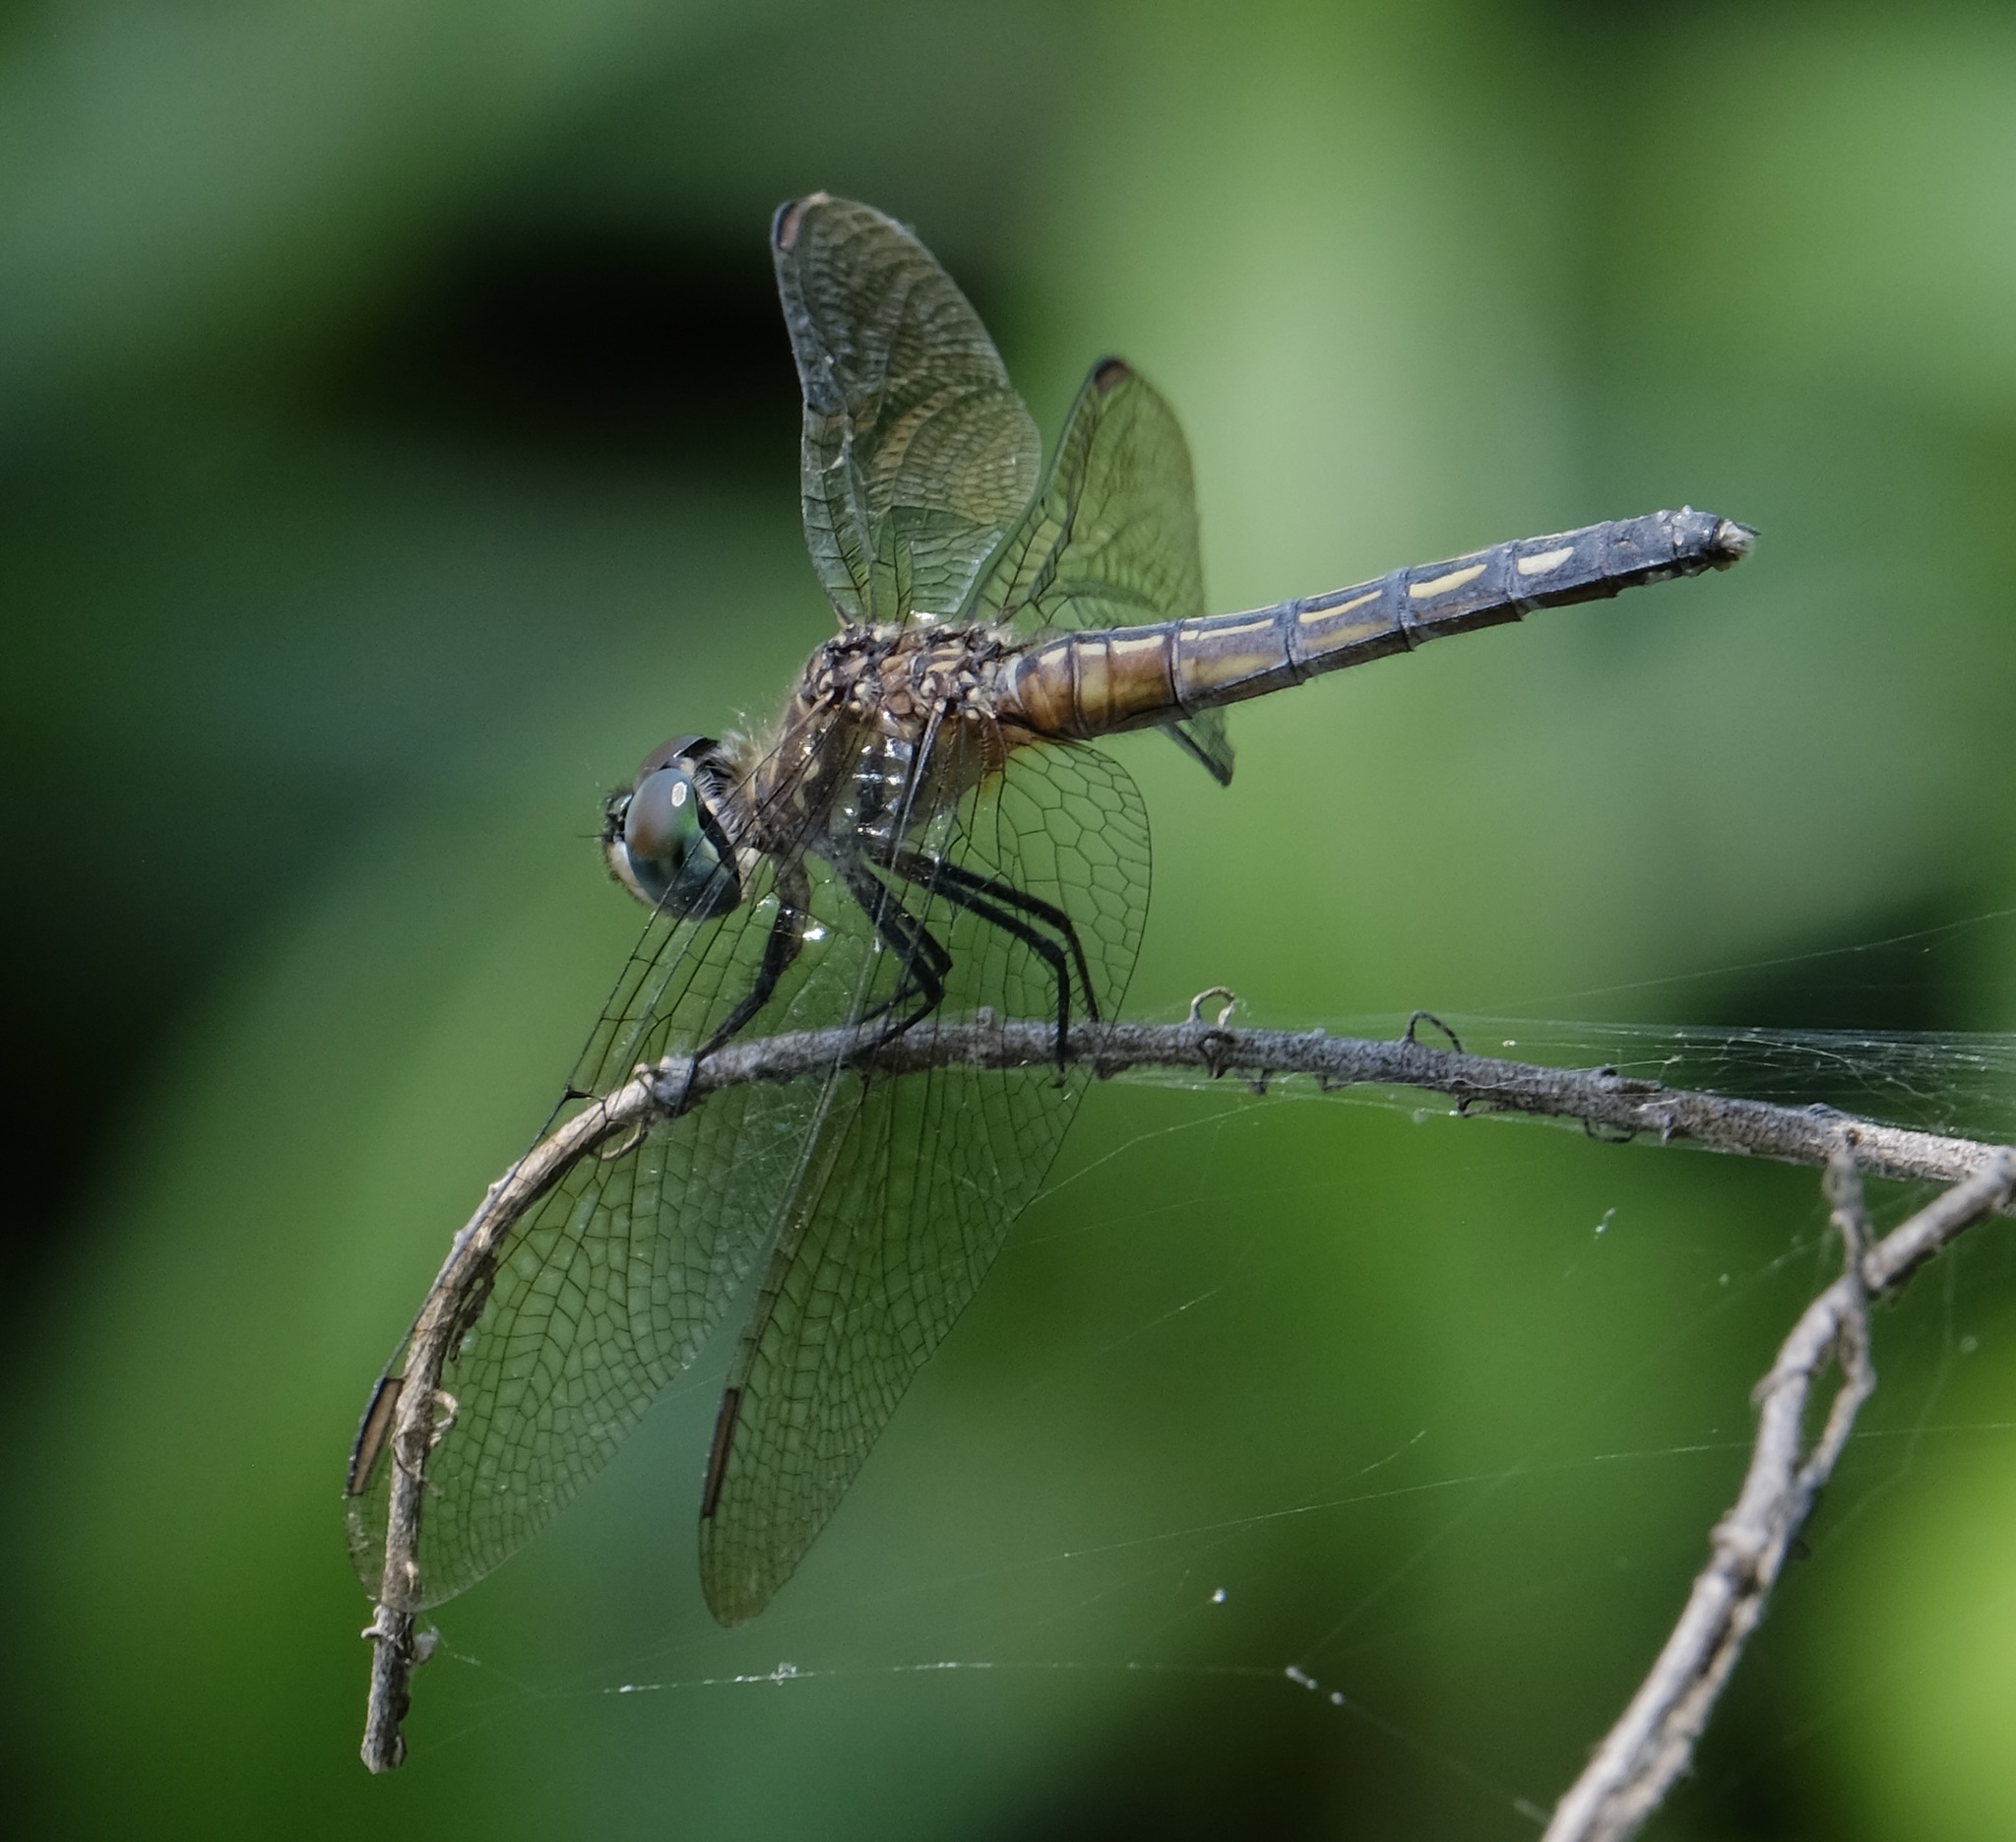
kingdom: Animalia
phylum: Arthropoda
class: Insecta
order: Odonata
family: Libellulidae
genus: Pachydiplax
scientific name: Pachydiplax longipennis
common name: Blue dasher
